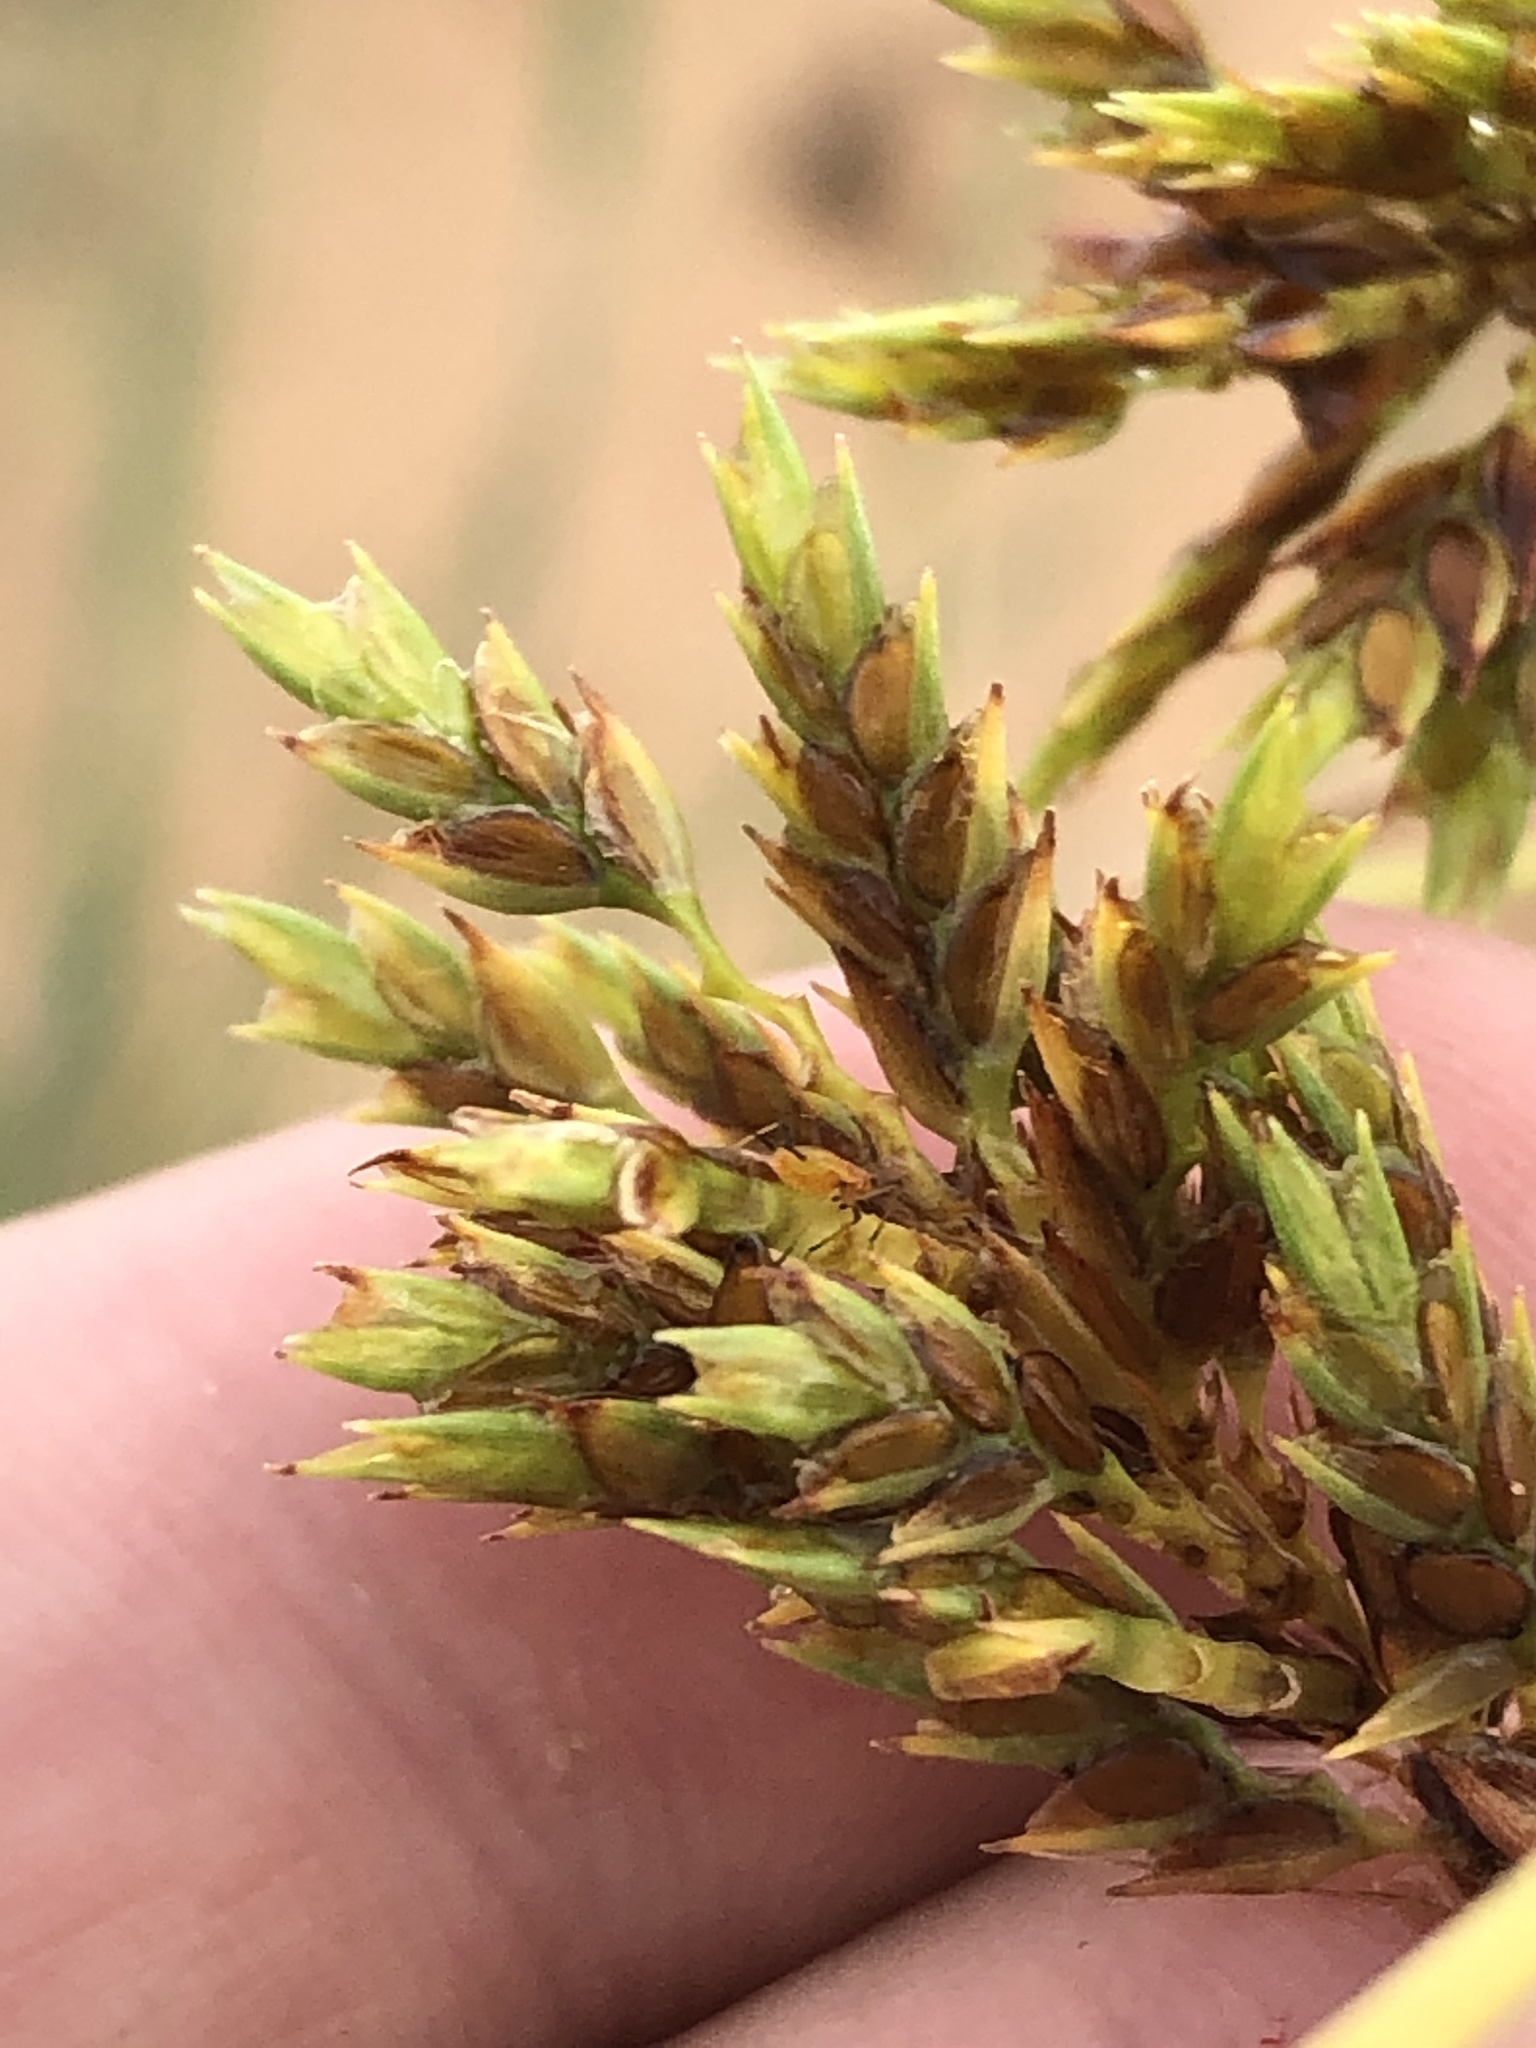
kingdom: Plantae
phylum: Tracheophyta
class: Liliopsida
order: Poales
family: Cyperaceae
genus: Cyperus
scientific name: Cyperus schweinitzii
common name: Schweinitz's cyperus
